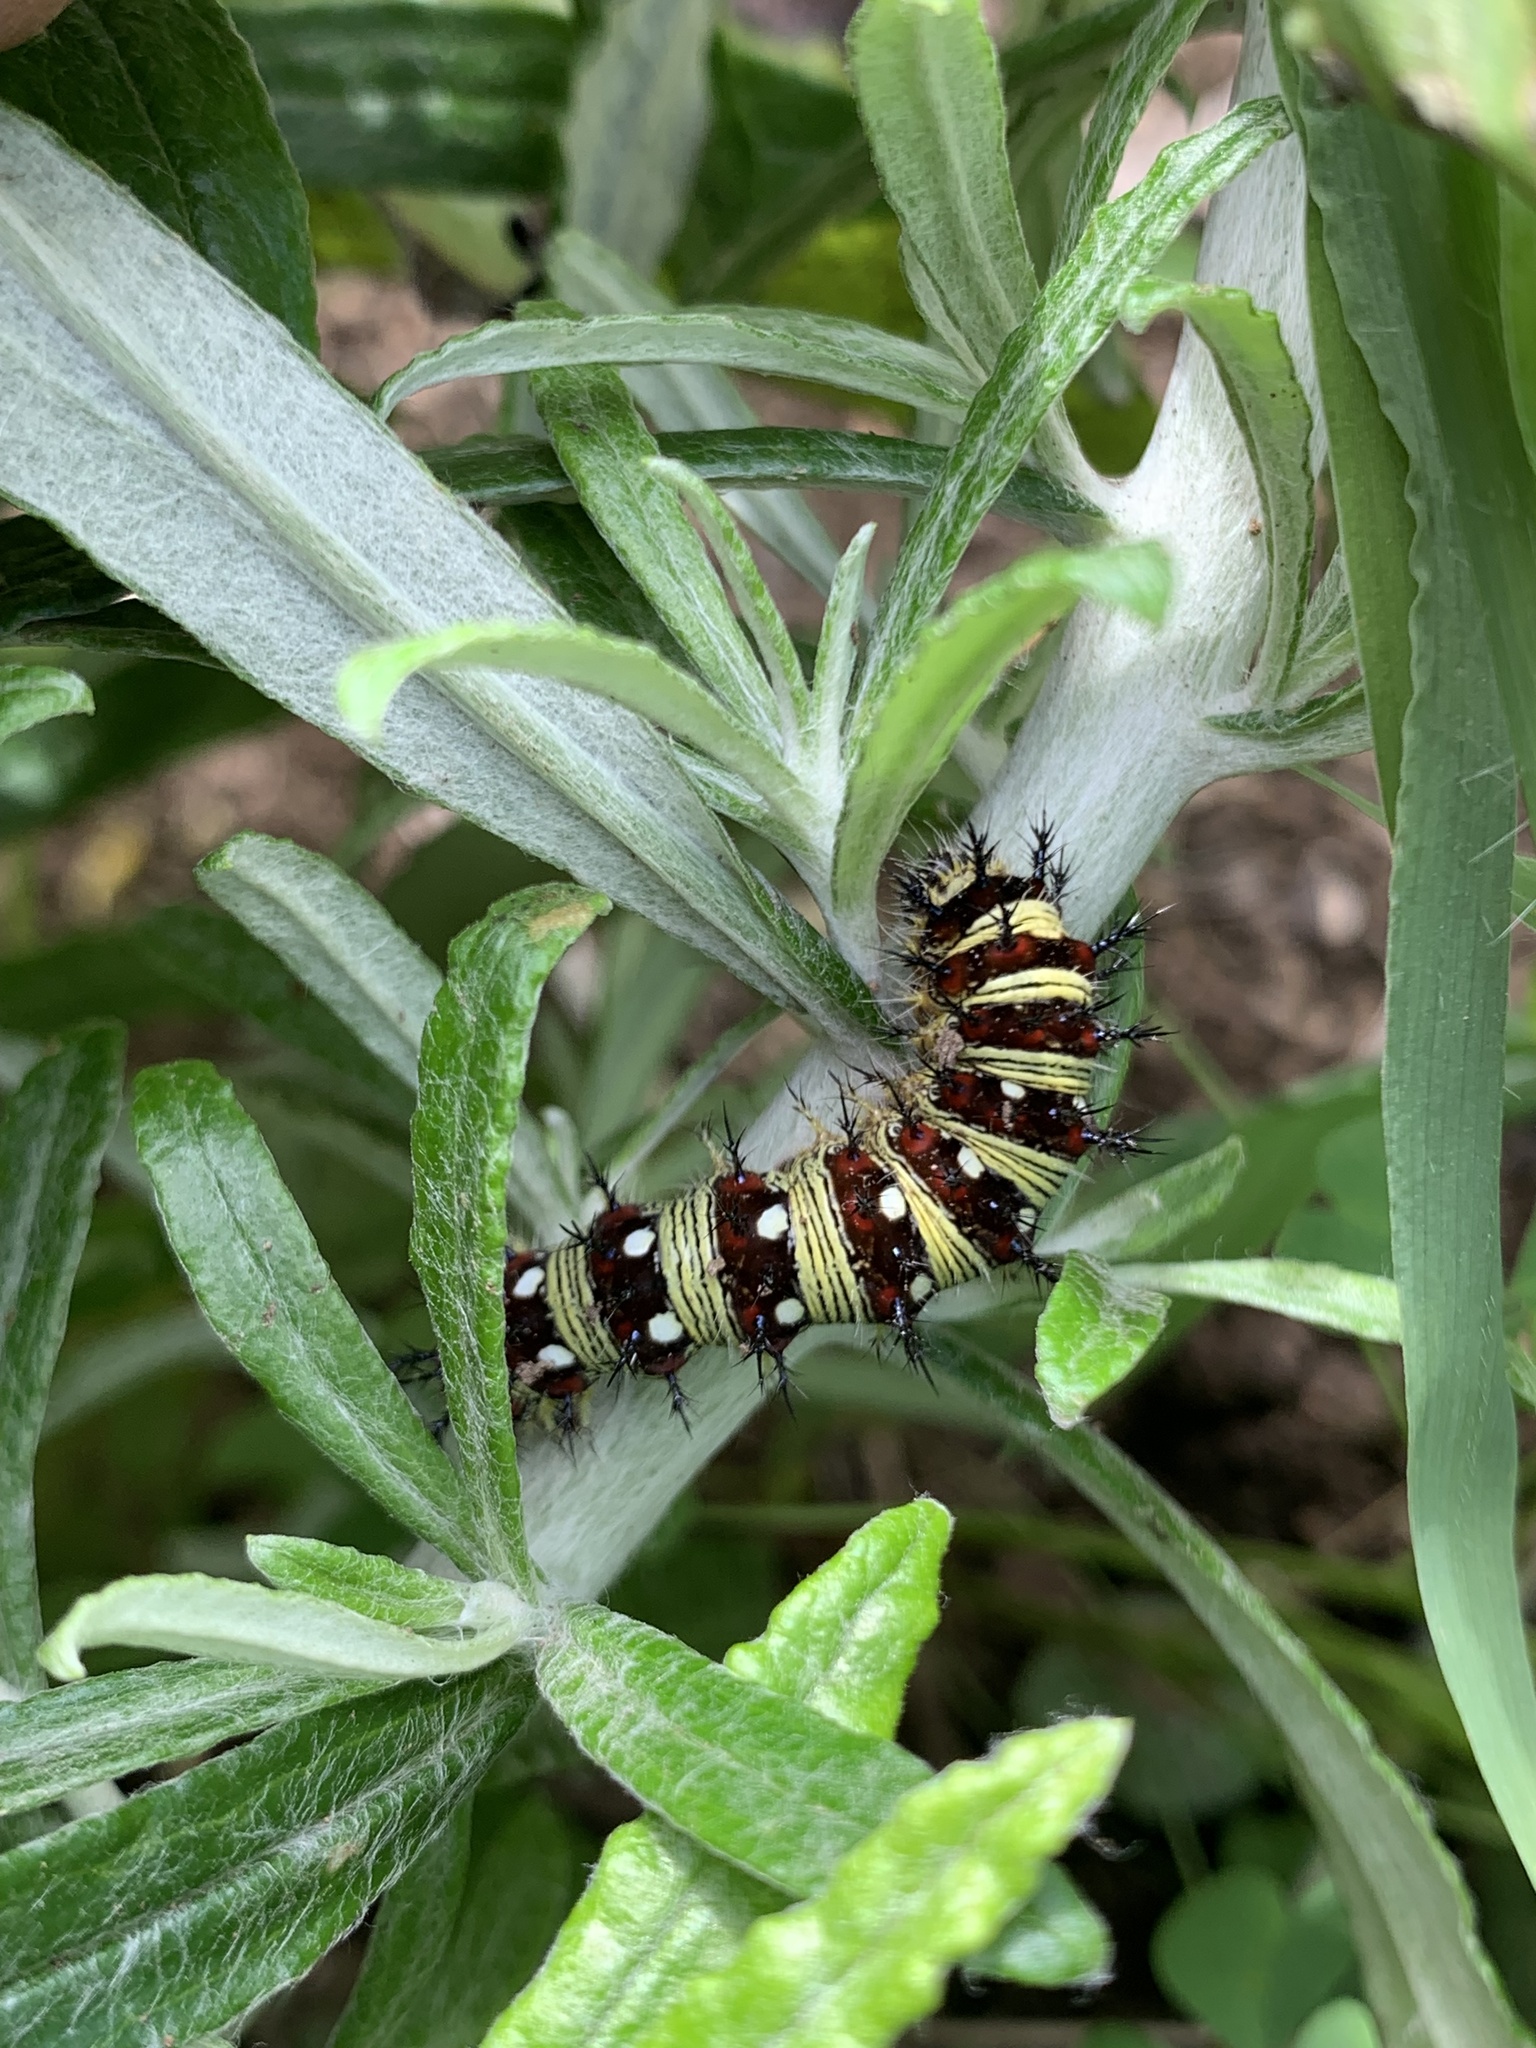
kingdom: Animalia
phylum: Arthropoda
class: Insecta
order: Lepidoptera
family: Nymphalidae
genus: Vanessa
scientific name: Vanessa virginiensis
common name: American lady
